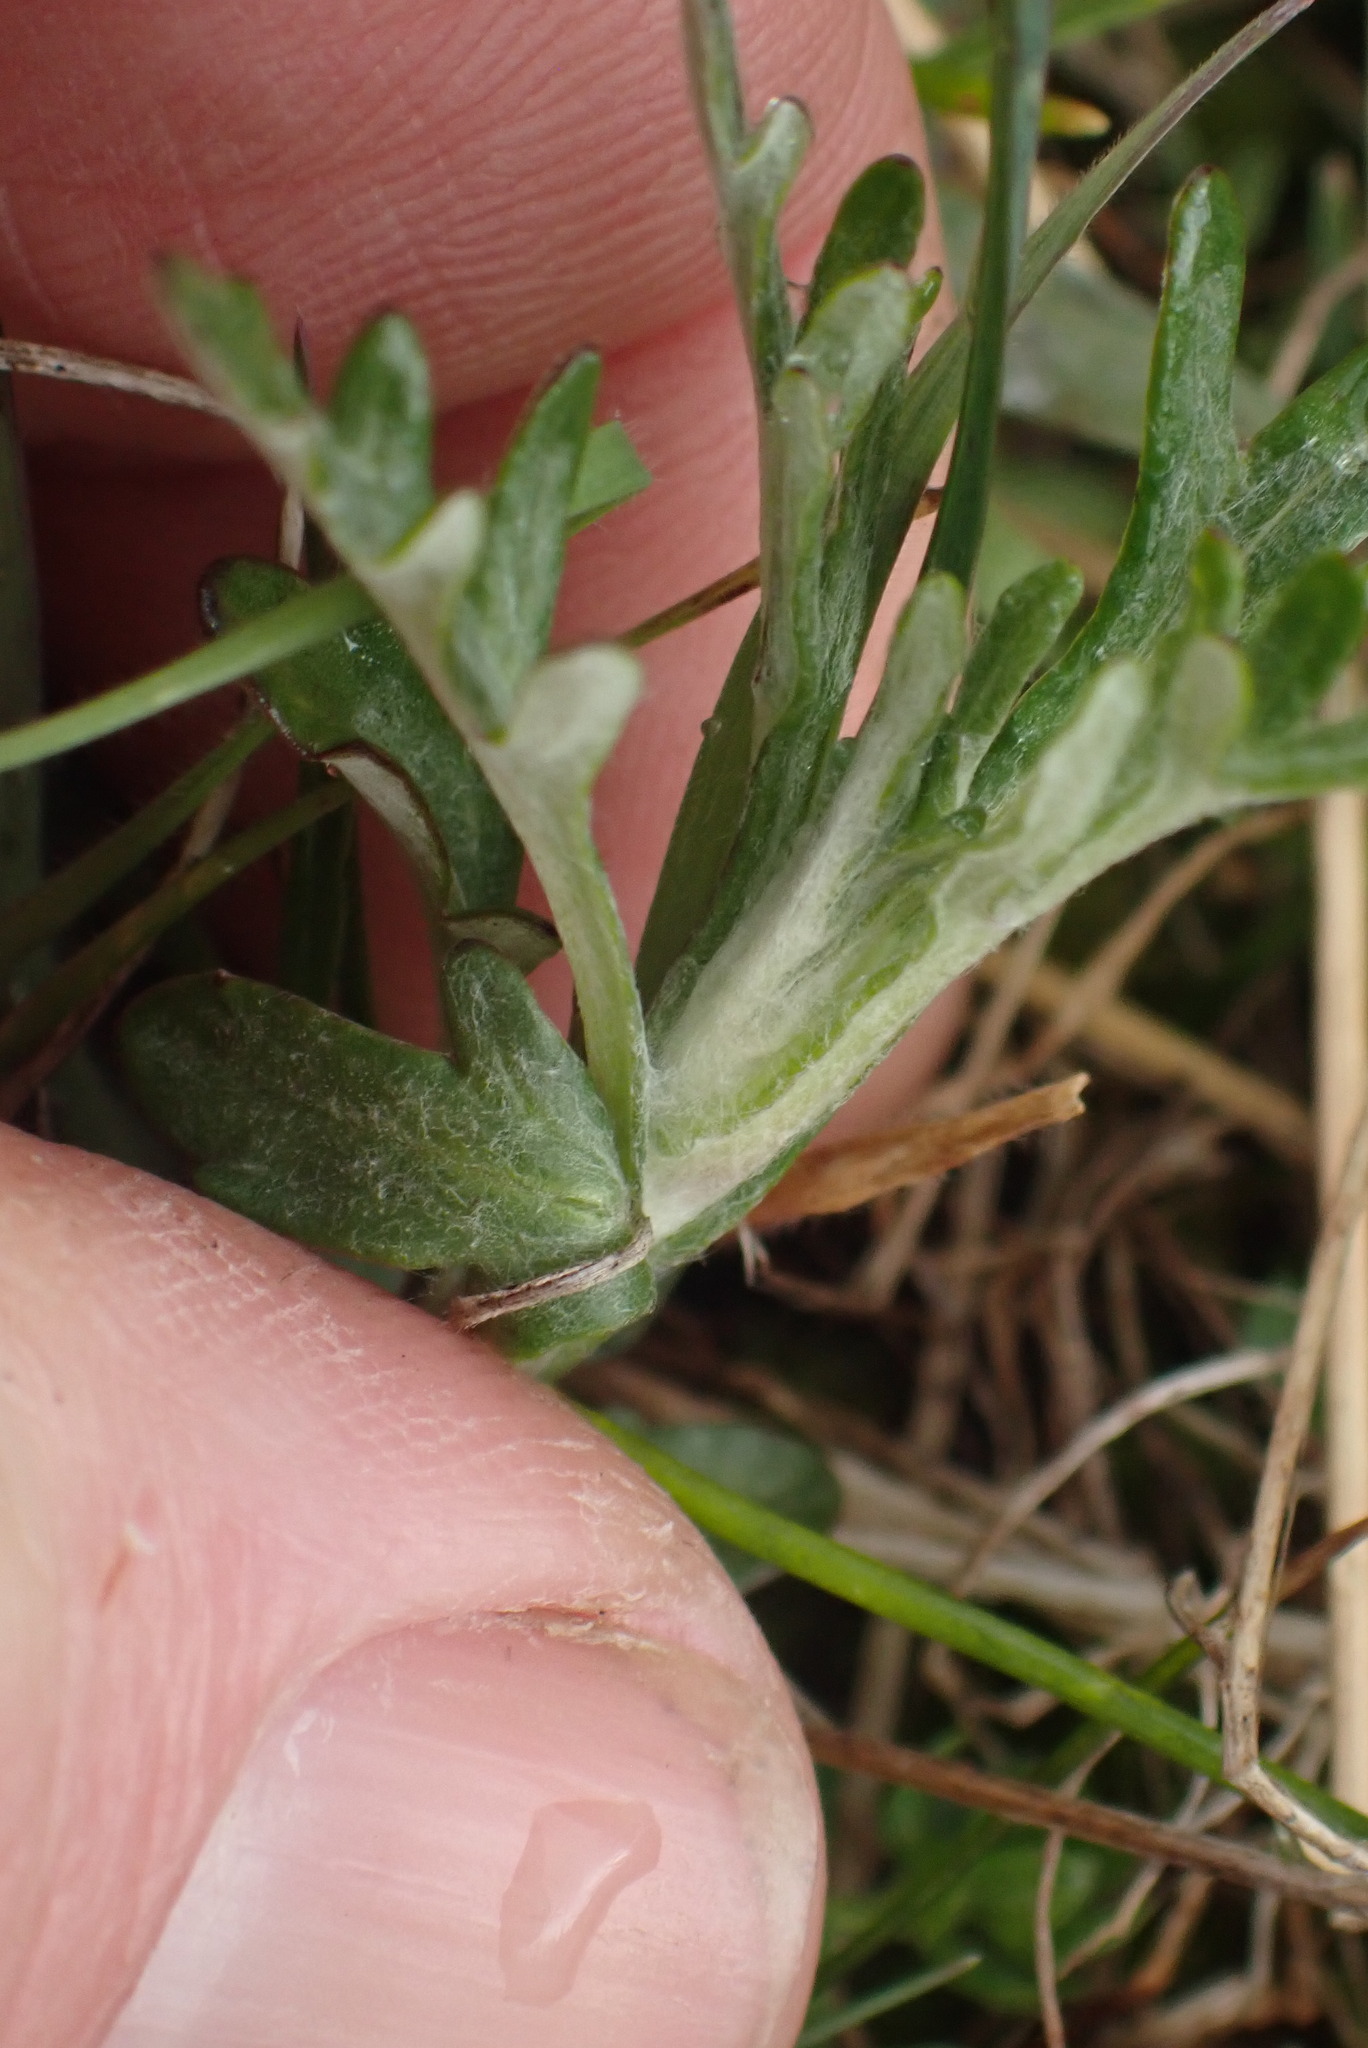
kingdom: Plantae
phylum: Tracheophyta
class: Magnoliopsida
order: Asterales
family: Asteraceae
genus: Eriophyllum
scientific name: Eriophyllum lanatum
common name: Common woolly-sunflower
